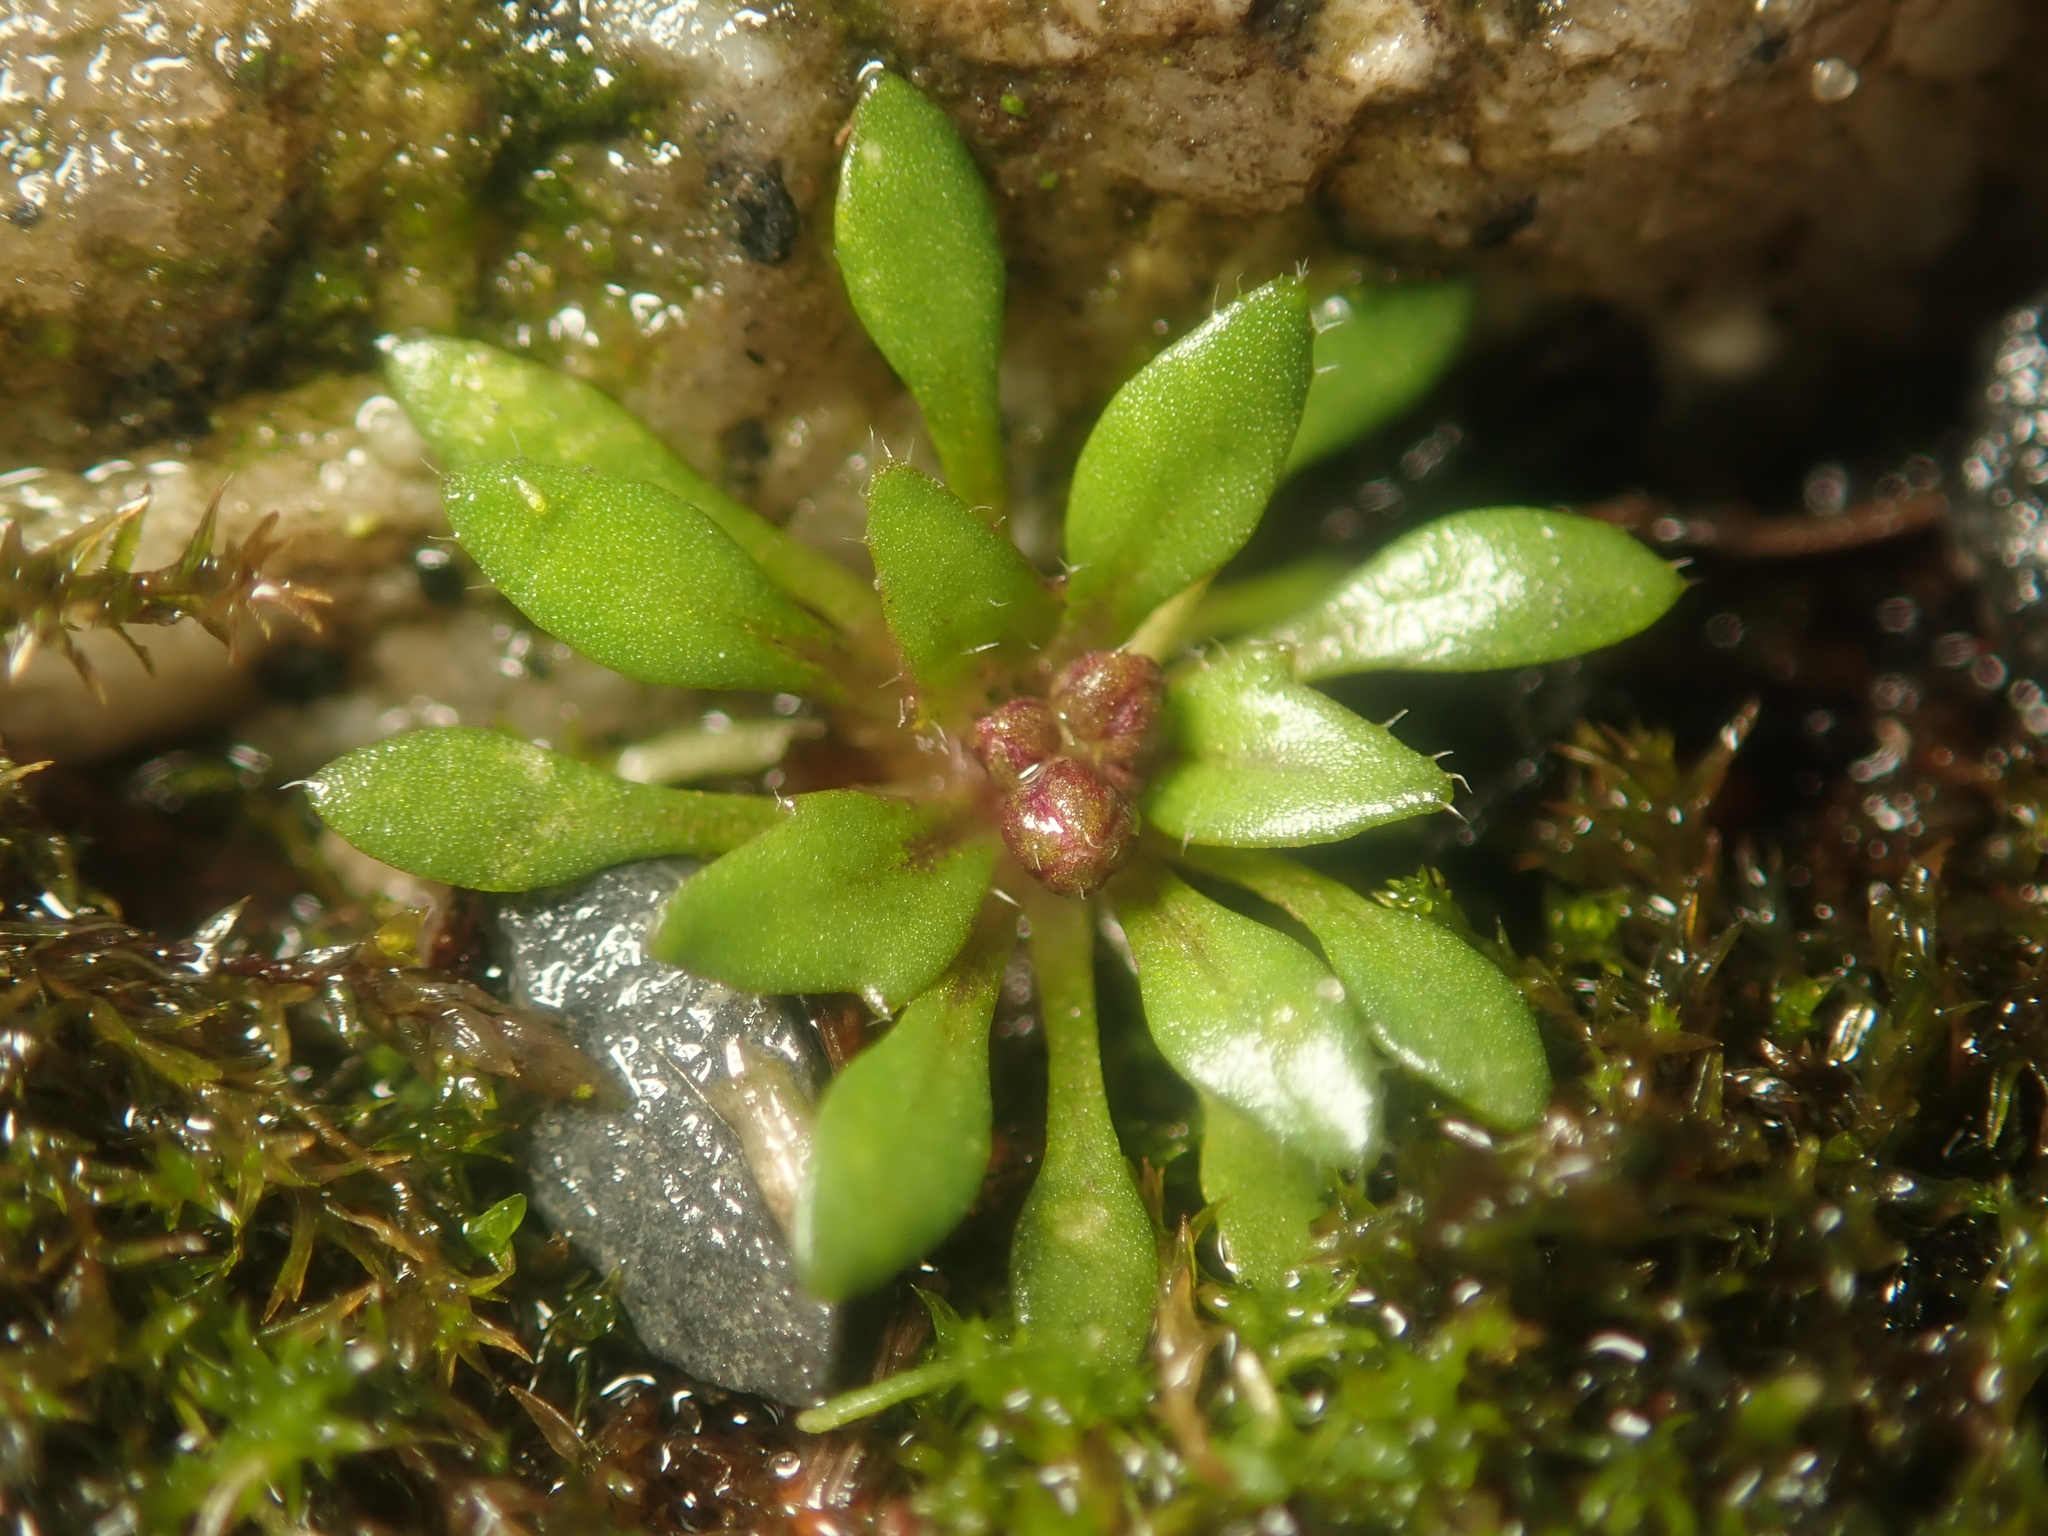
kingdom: Plantae
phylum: Tracheophyta
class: Magnoliopsida
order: Brassicales
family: Brassicaceae
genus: Draba
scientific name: Draba verna
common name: Spring draba
